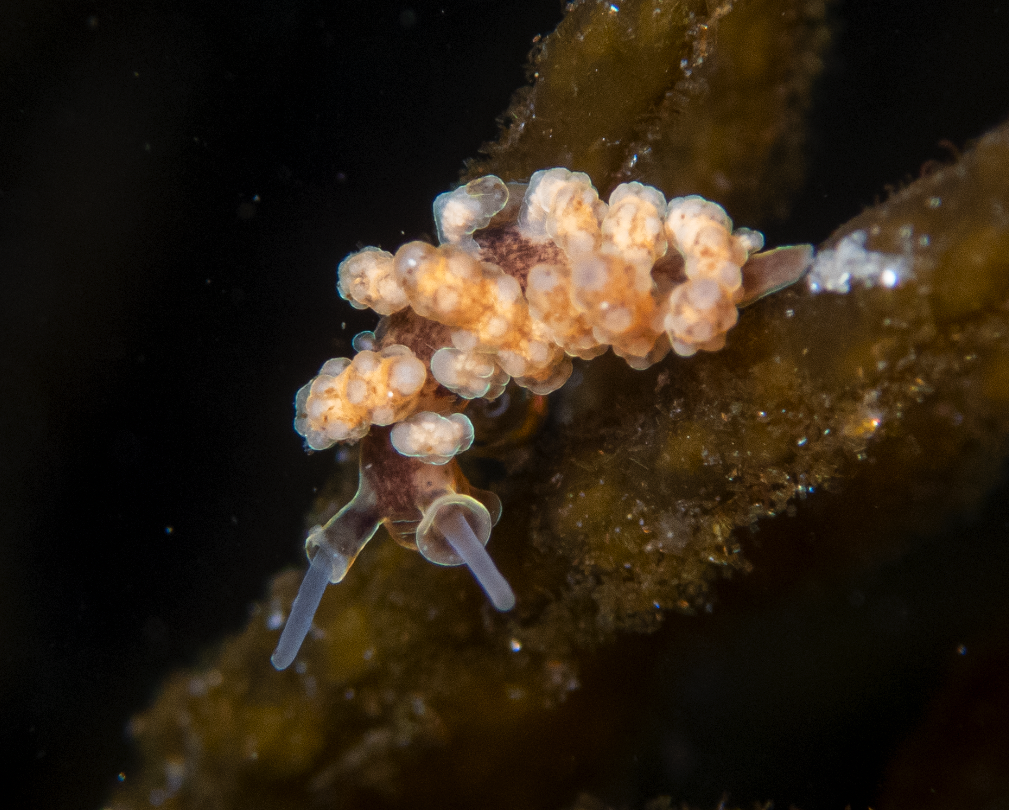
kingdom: Animalia
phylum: Mollusca
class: Gastropoda
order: Nudibranchia
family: Dotidae
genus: Doto
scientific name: Doto columbiana
